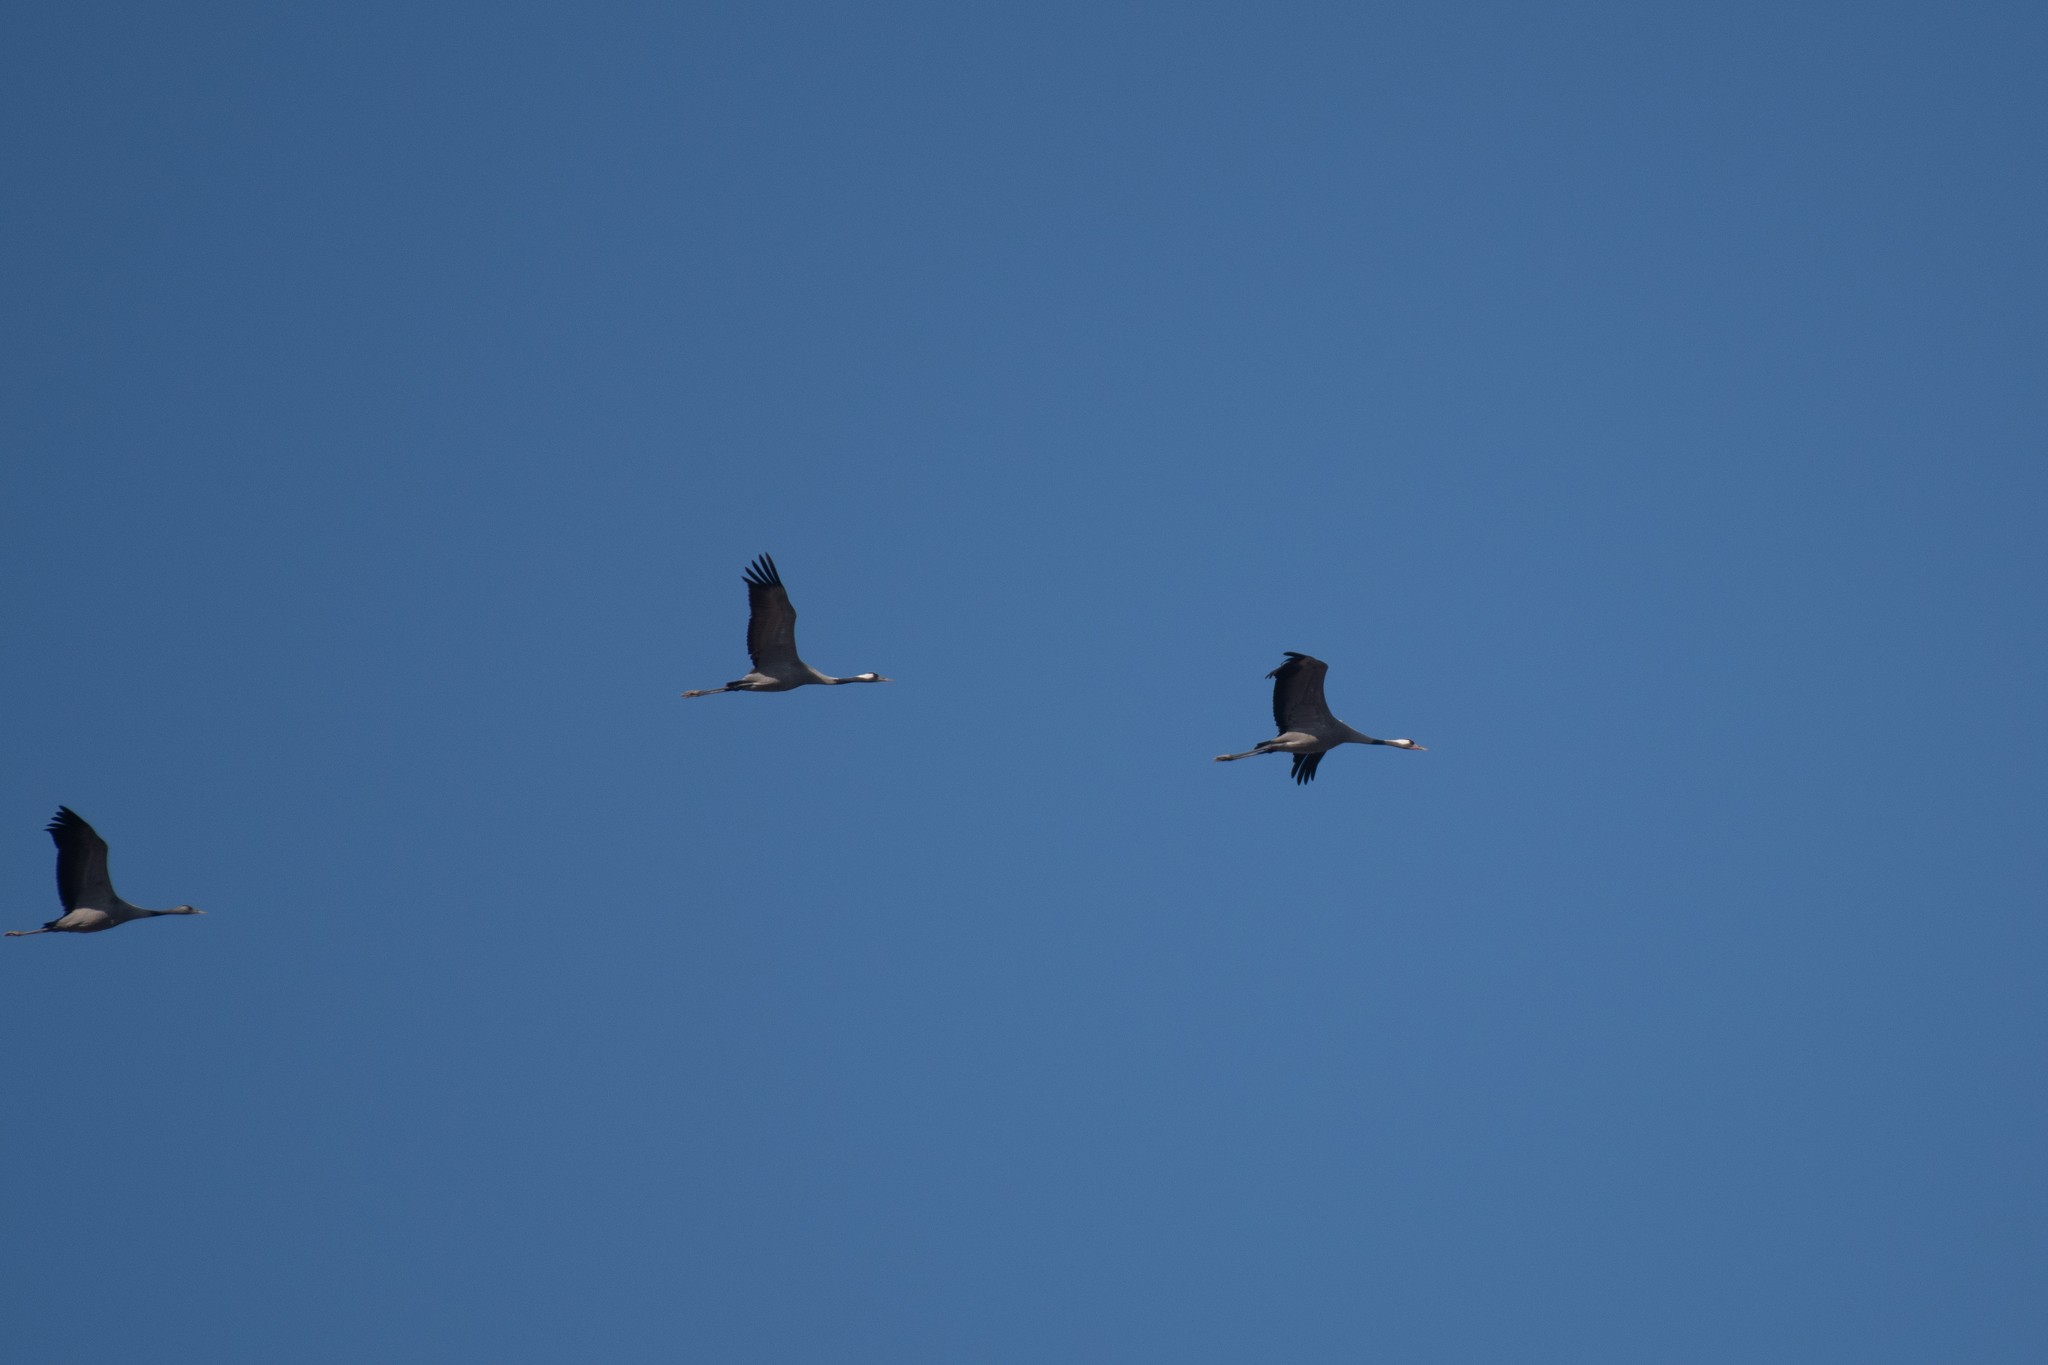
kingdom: Animalia
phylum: Chordata
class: Aves
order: Gruiformes
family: Gruidae
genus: Grus
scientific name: Grus grus
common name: Common crane
